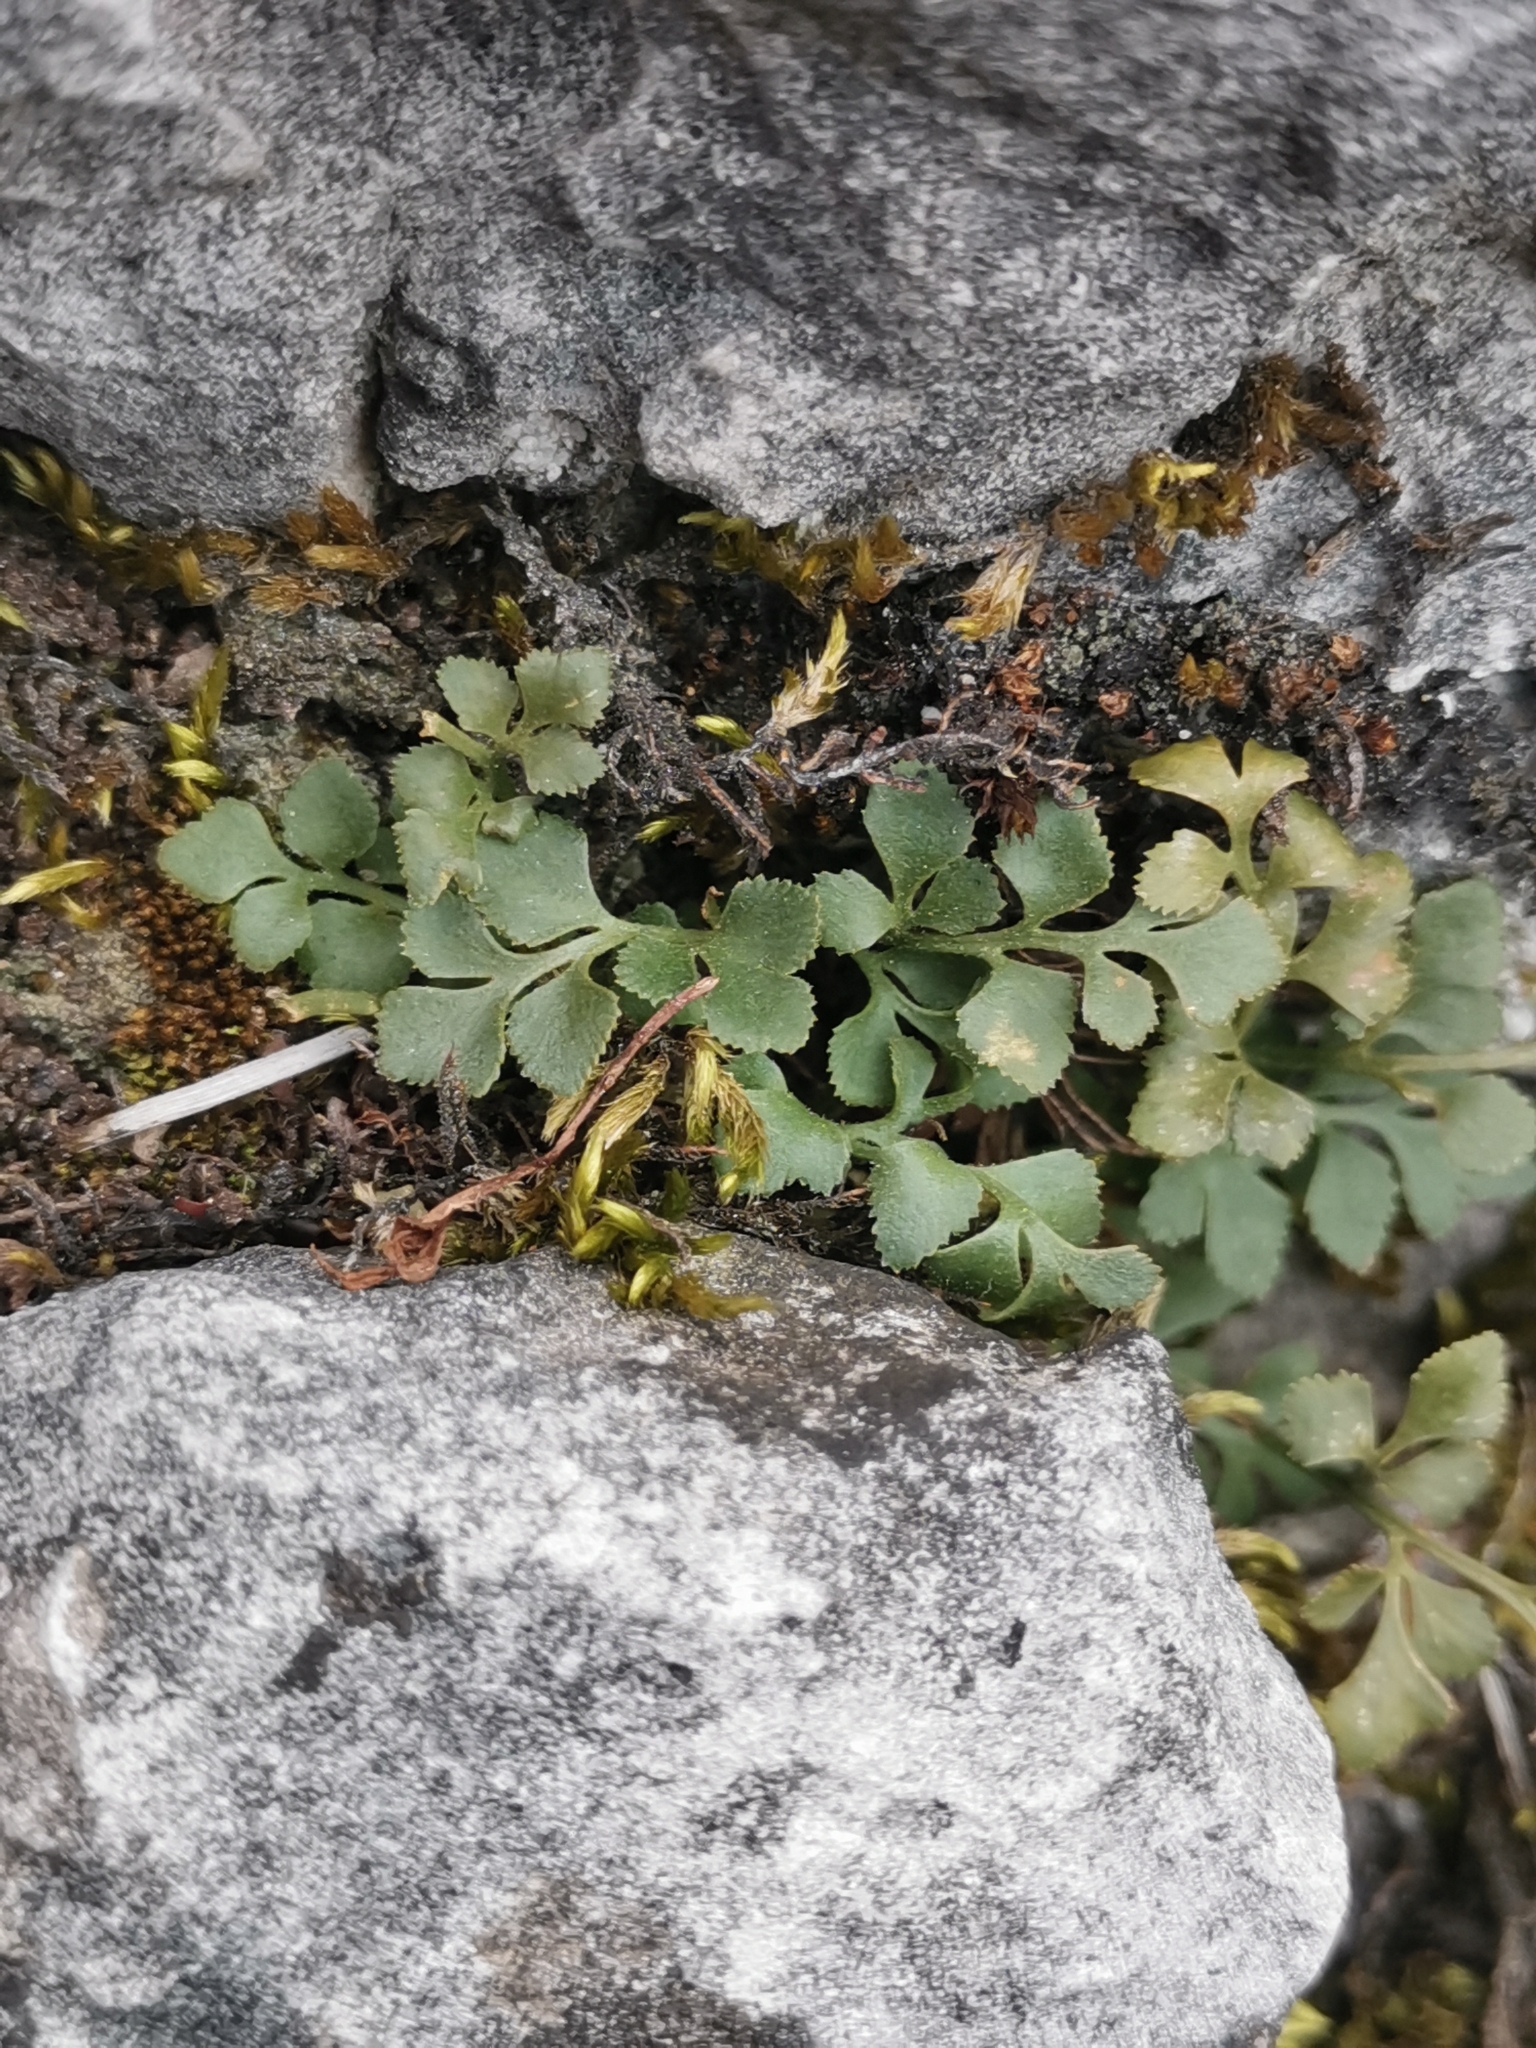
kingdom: Plantae
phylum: Tracheophyta
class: Polypodiopsida
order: Polypodiales
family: Aspleniaceae
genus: Asplenium
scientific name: Asplenium ruta-muraria
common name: Wall-rue
